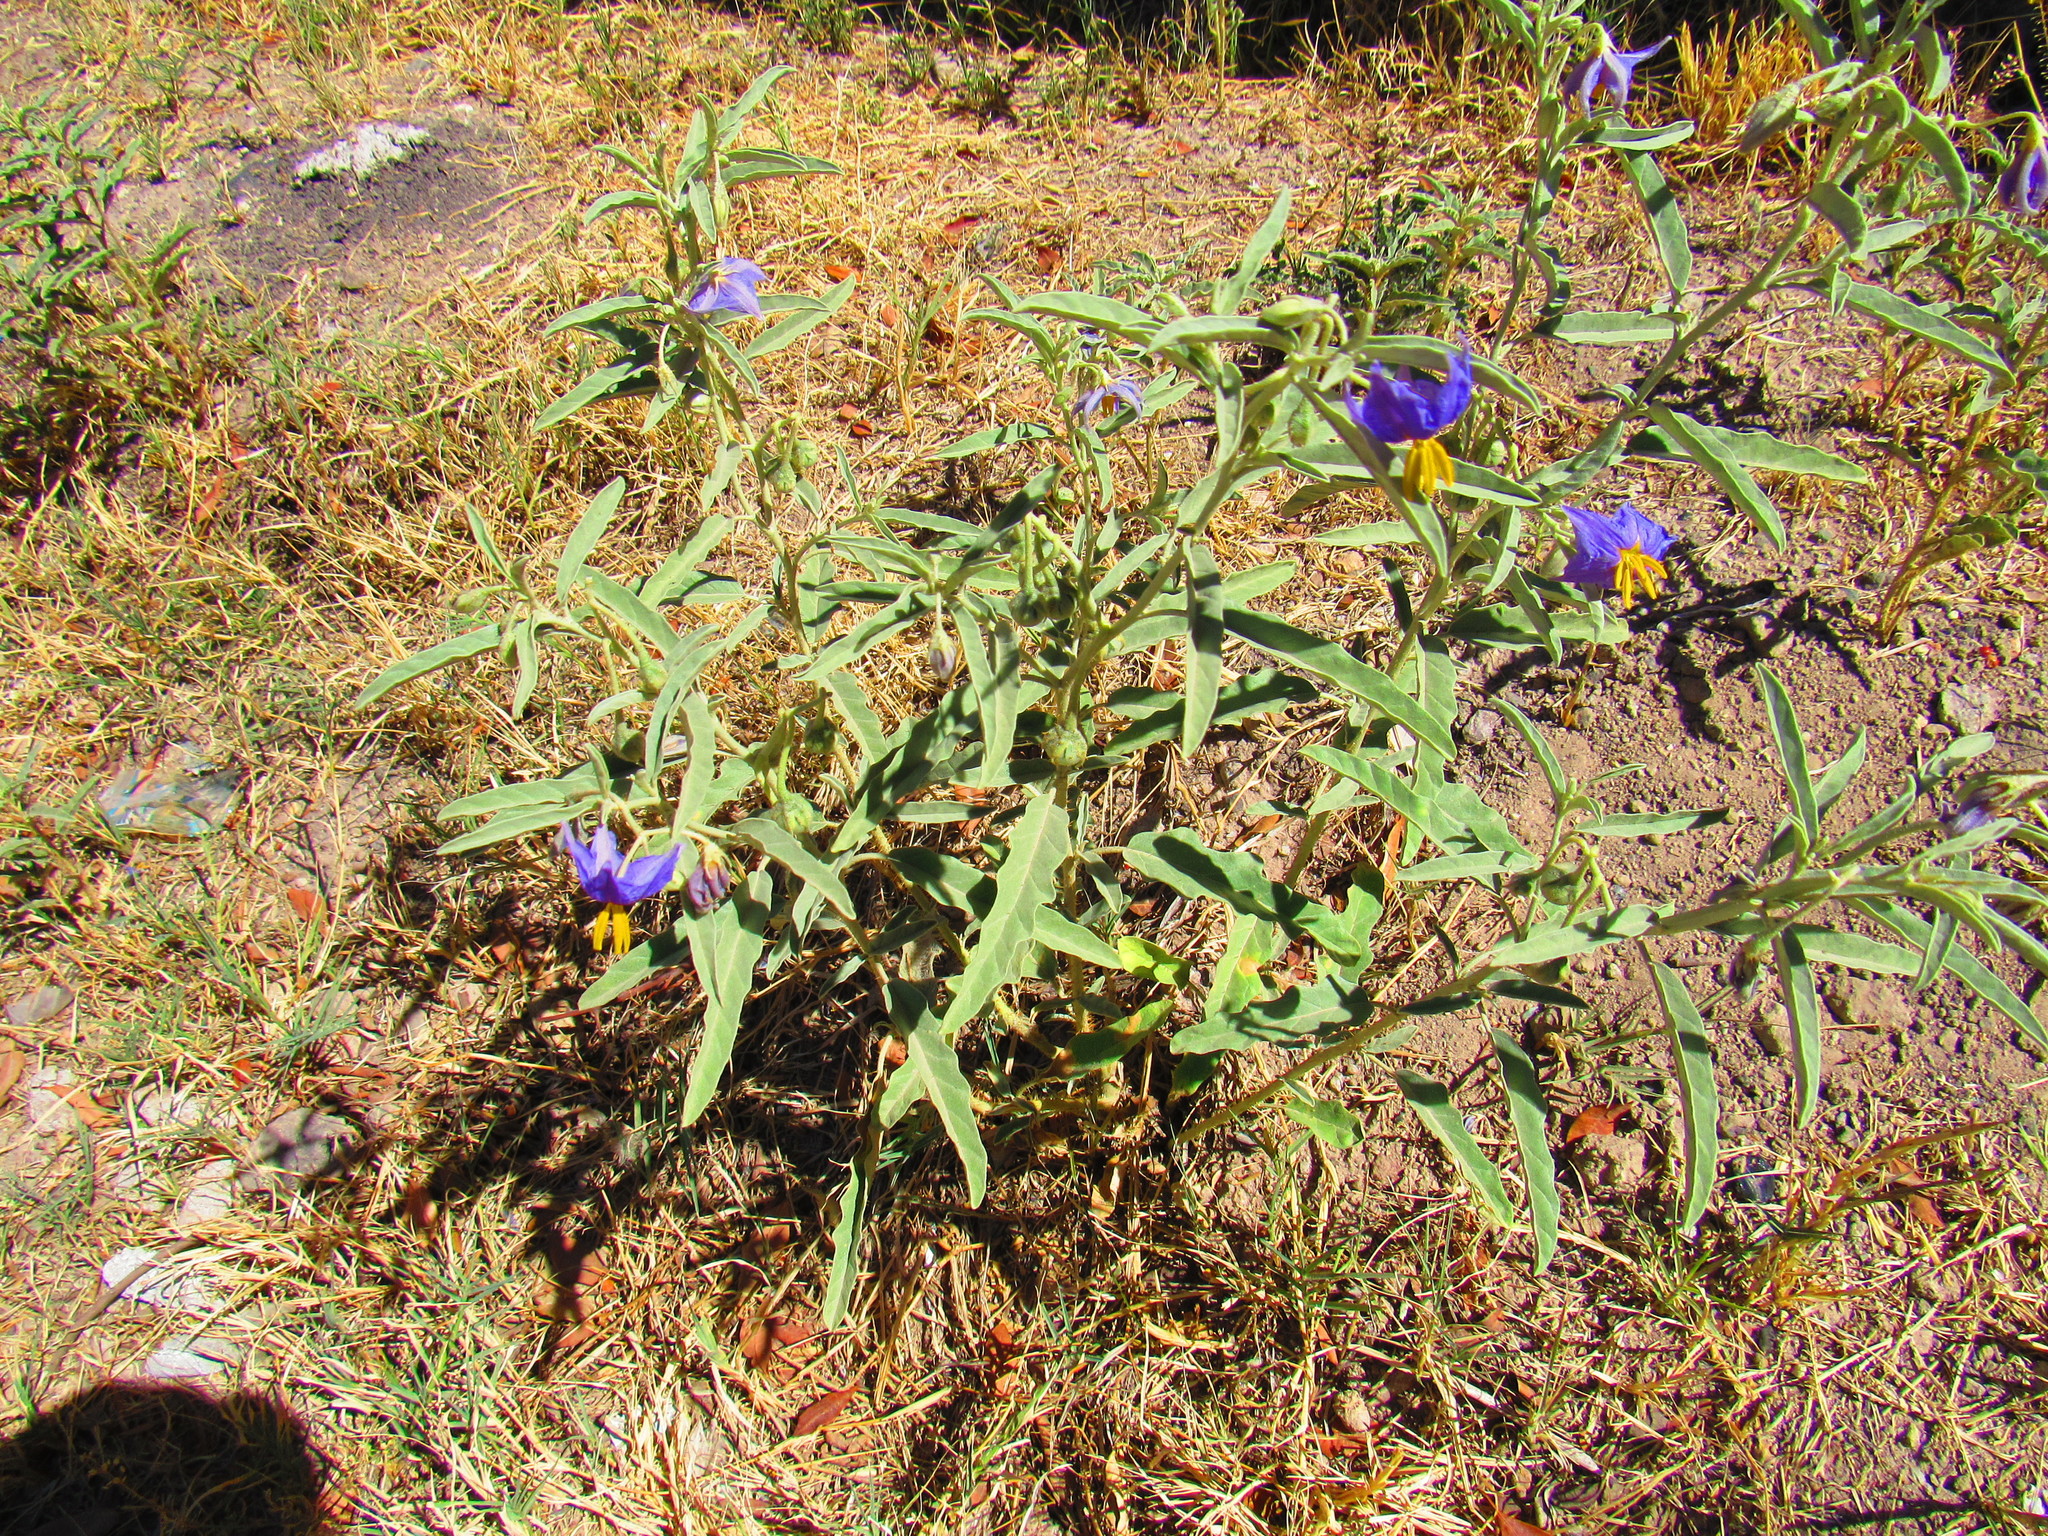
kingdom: Plantae
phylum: Tracheophyta
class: Magnoliopsida
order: Solanales
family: Solanaceae
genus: Solanum
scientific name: Solanum elaeagnifolium
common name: Silverleaf nightshade
